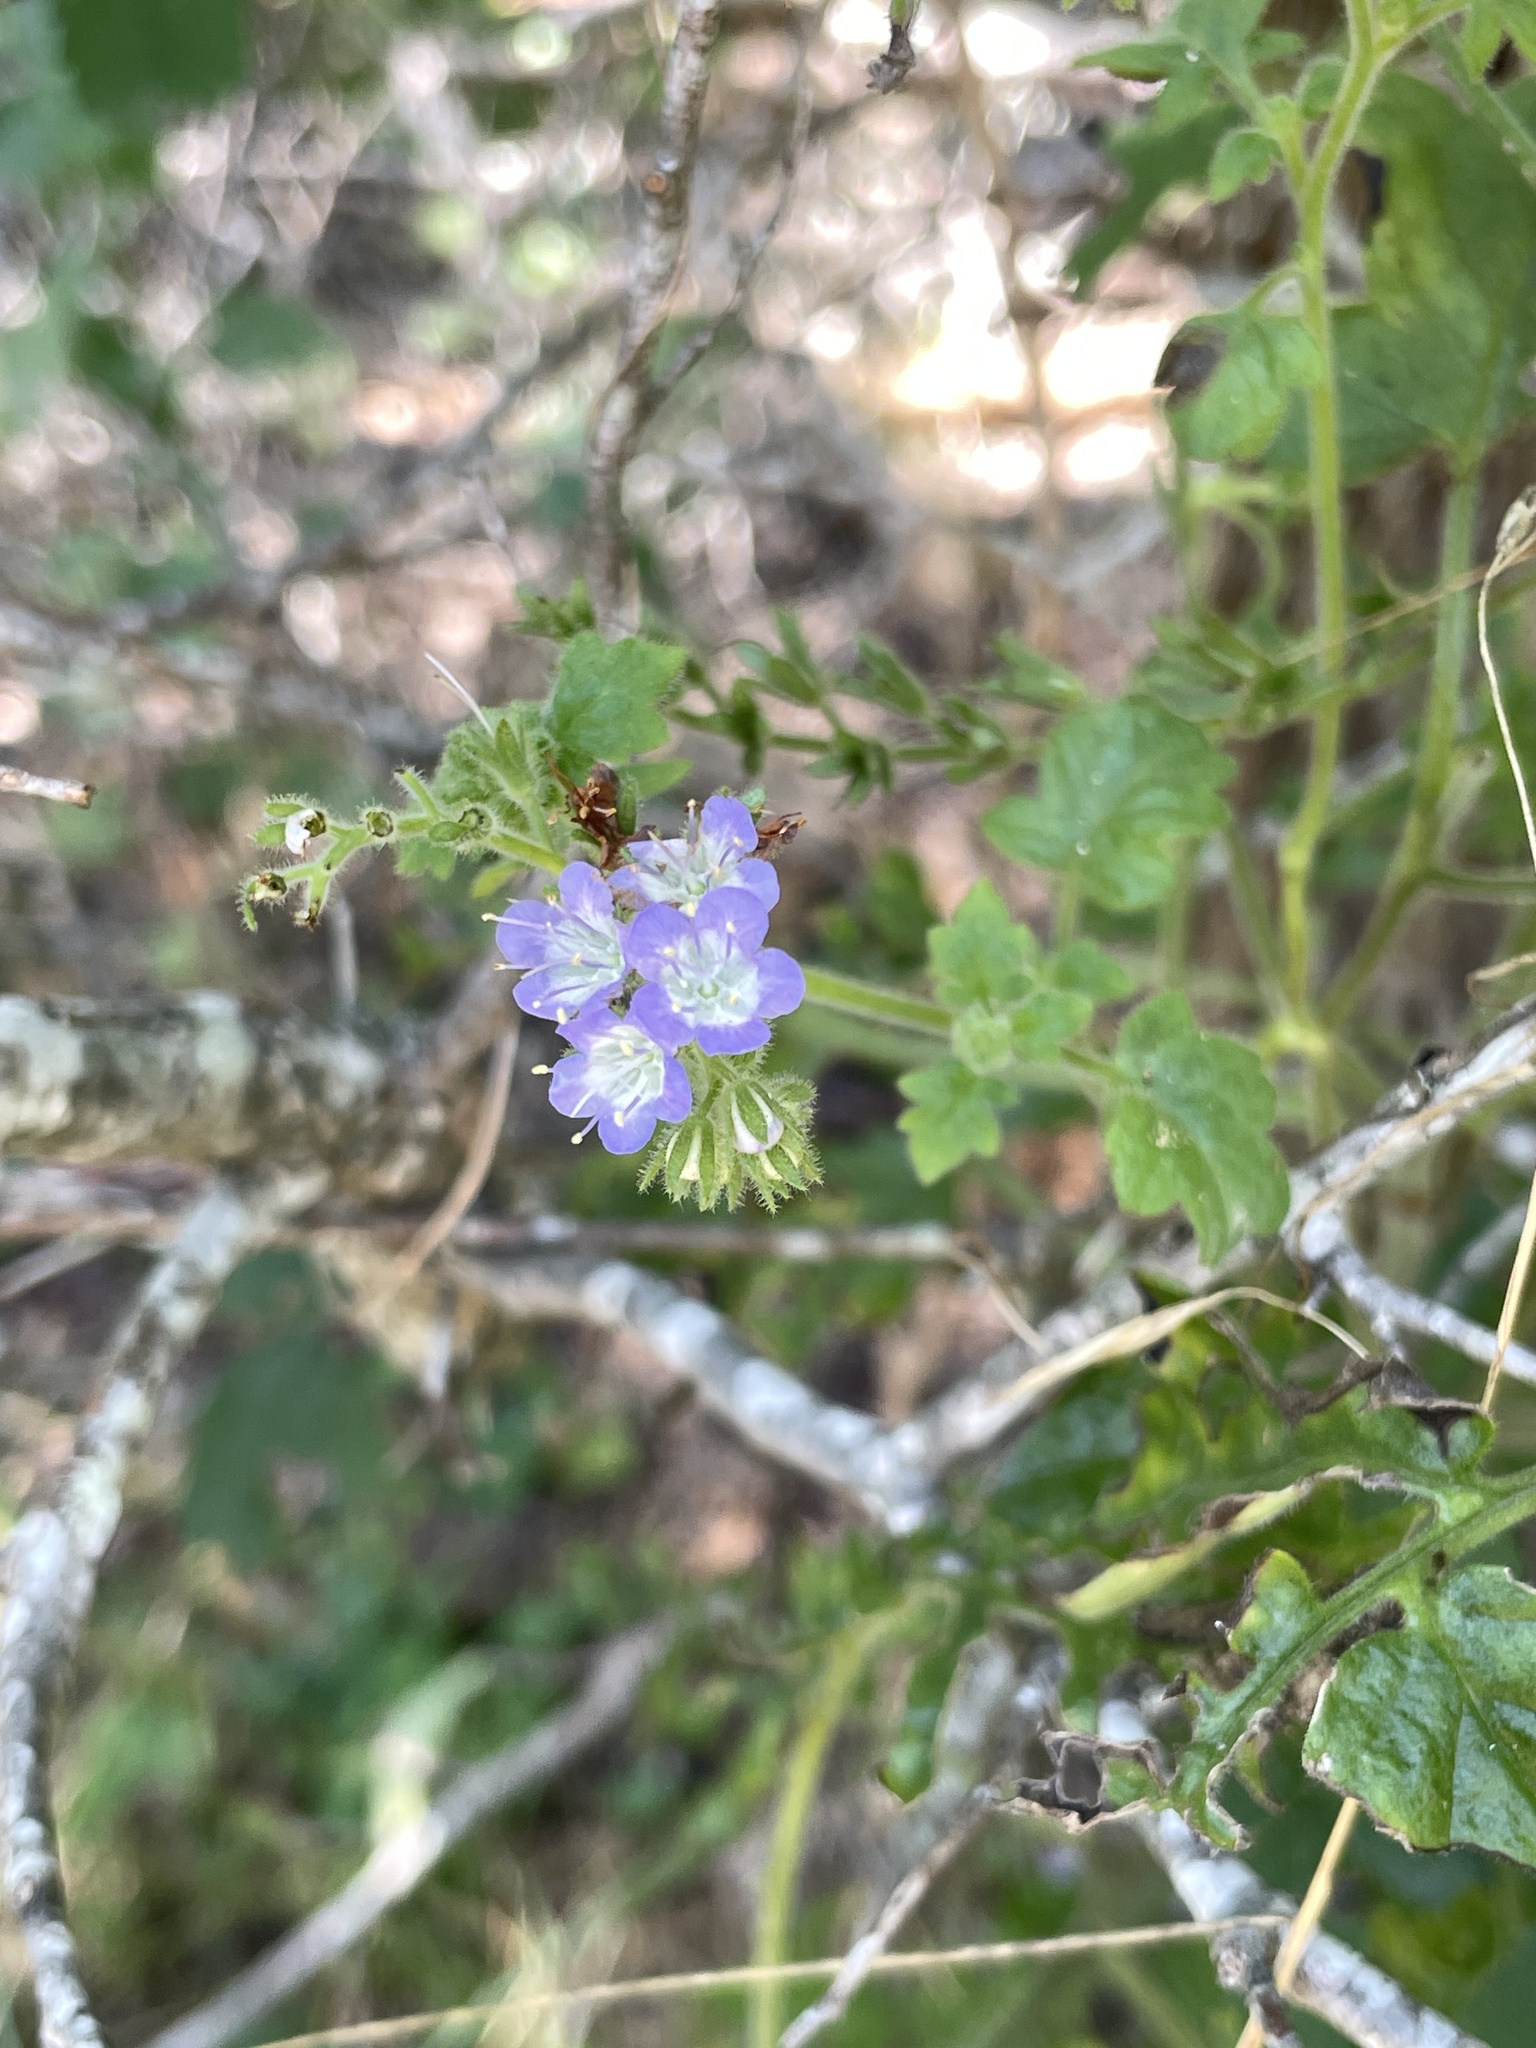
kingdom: Plantae
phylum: Tracheophyta
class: Magnoliopsida
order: Boraginales
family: Hydrophyllaceae
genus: Phacelia
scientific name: Phacelia congesta
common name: Blue curls
